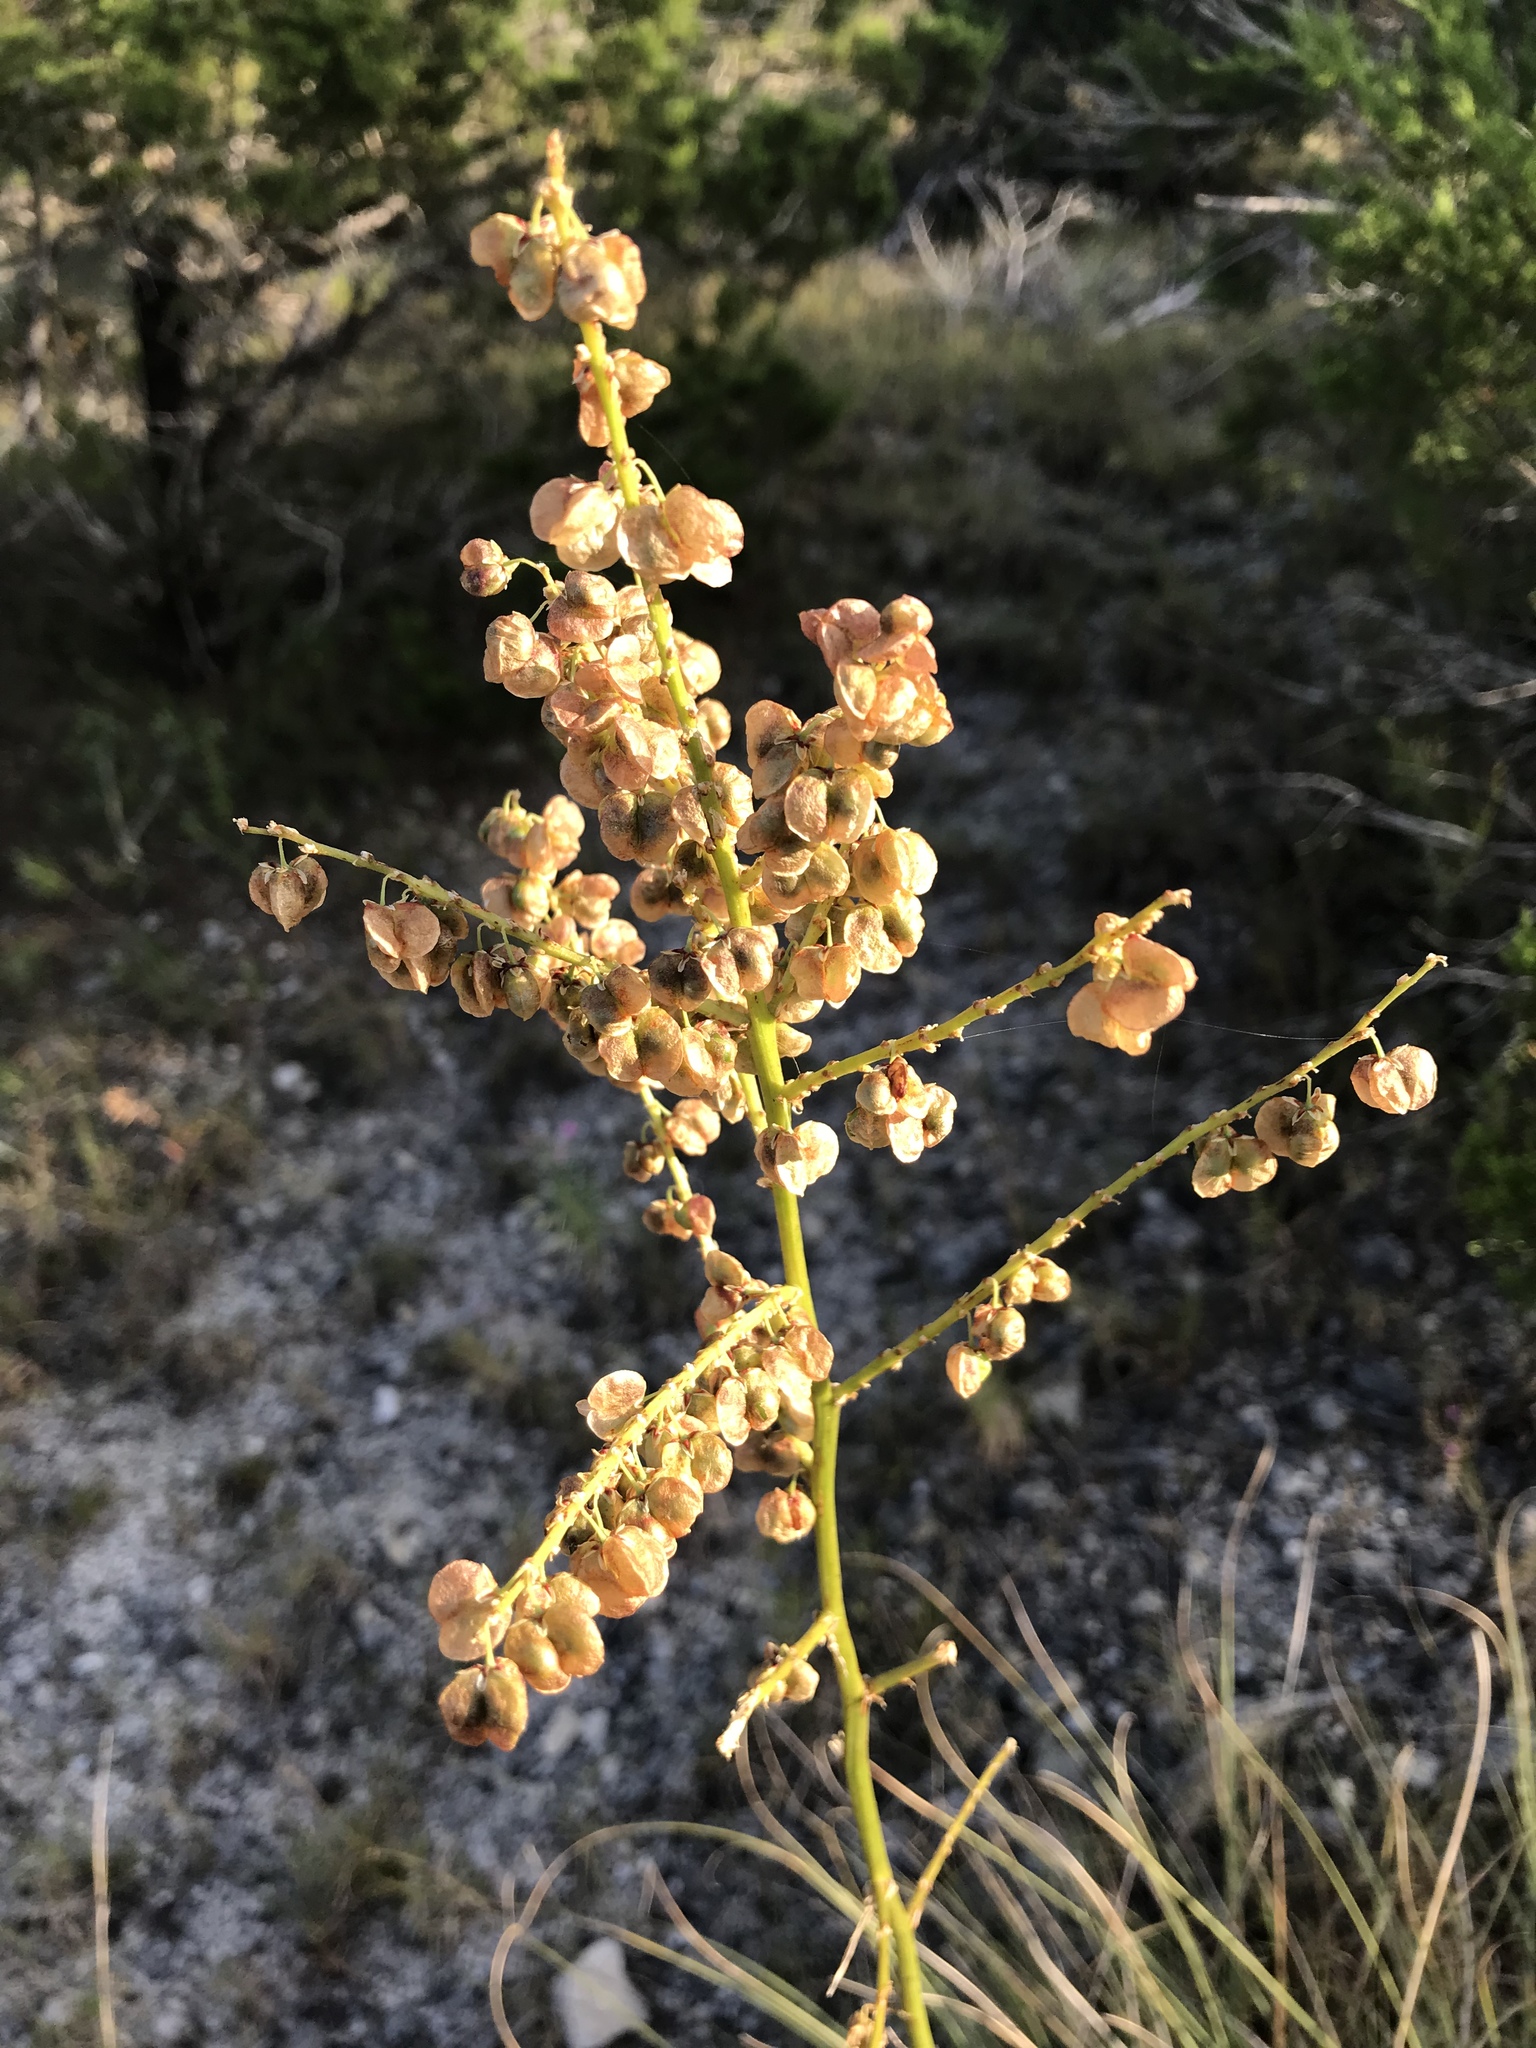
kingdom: Plantae
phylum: Tracheophyta
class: Liliopsida
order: Asparagales
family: Asparagaceae
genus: Nolina
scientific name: Nolina texana
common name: Texas sacahuiste
